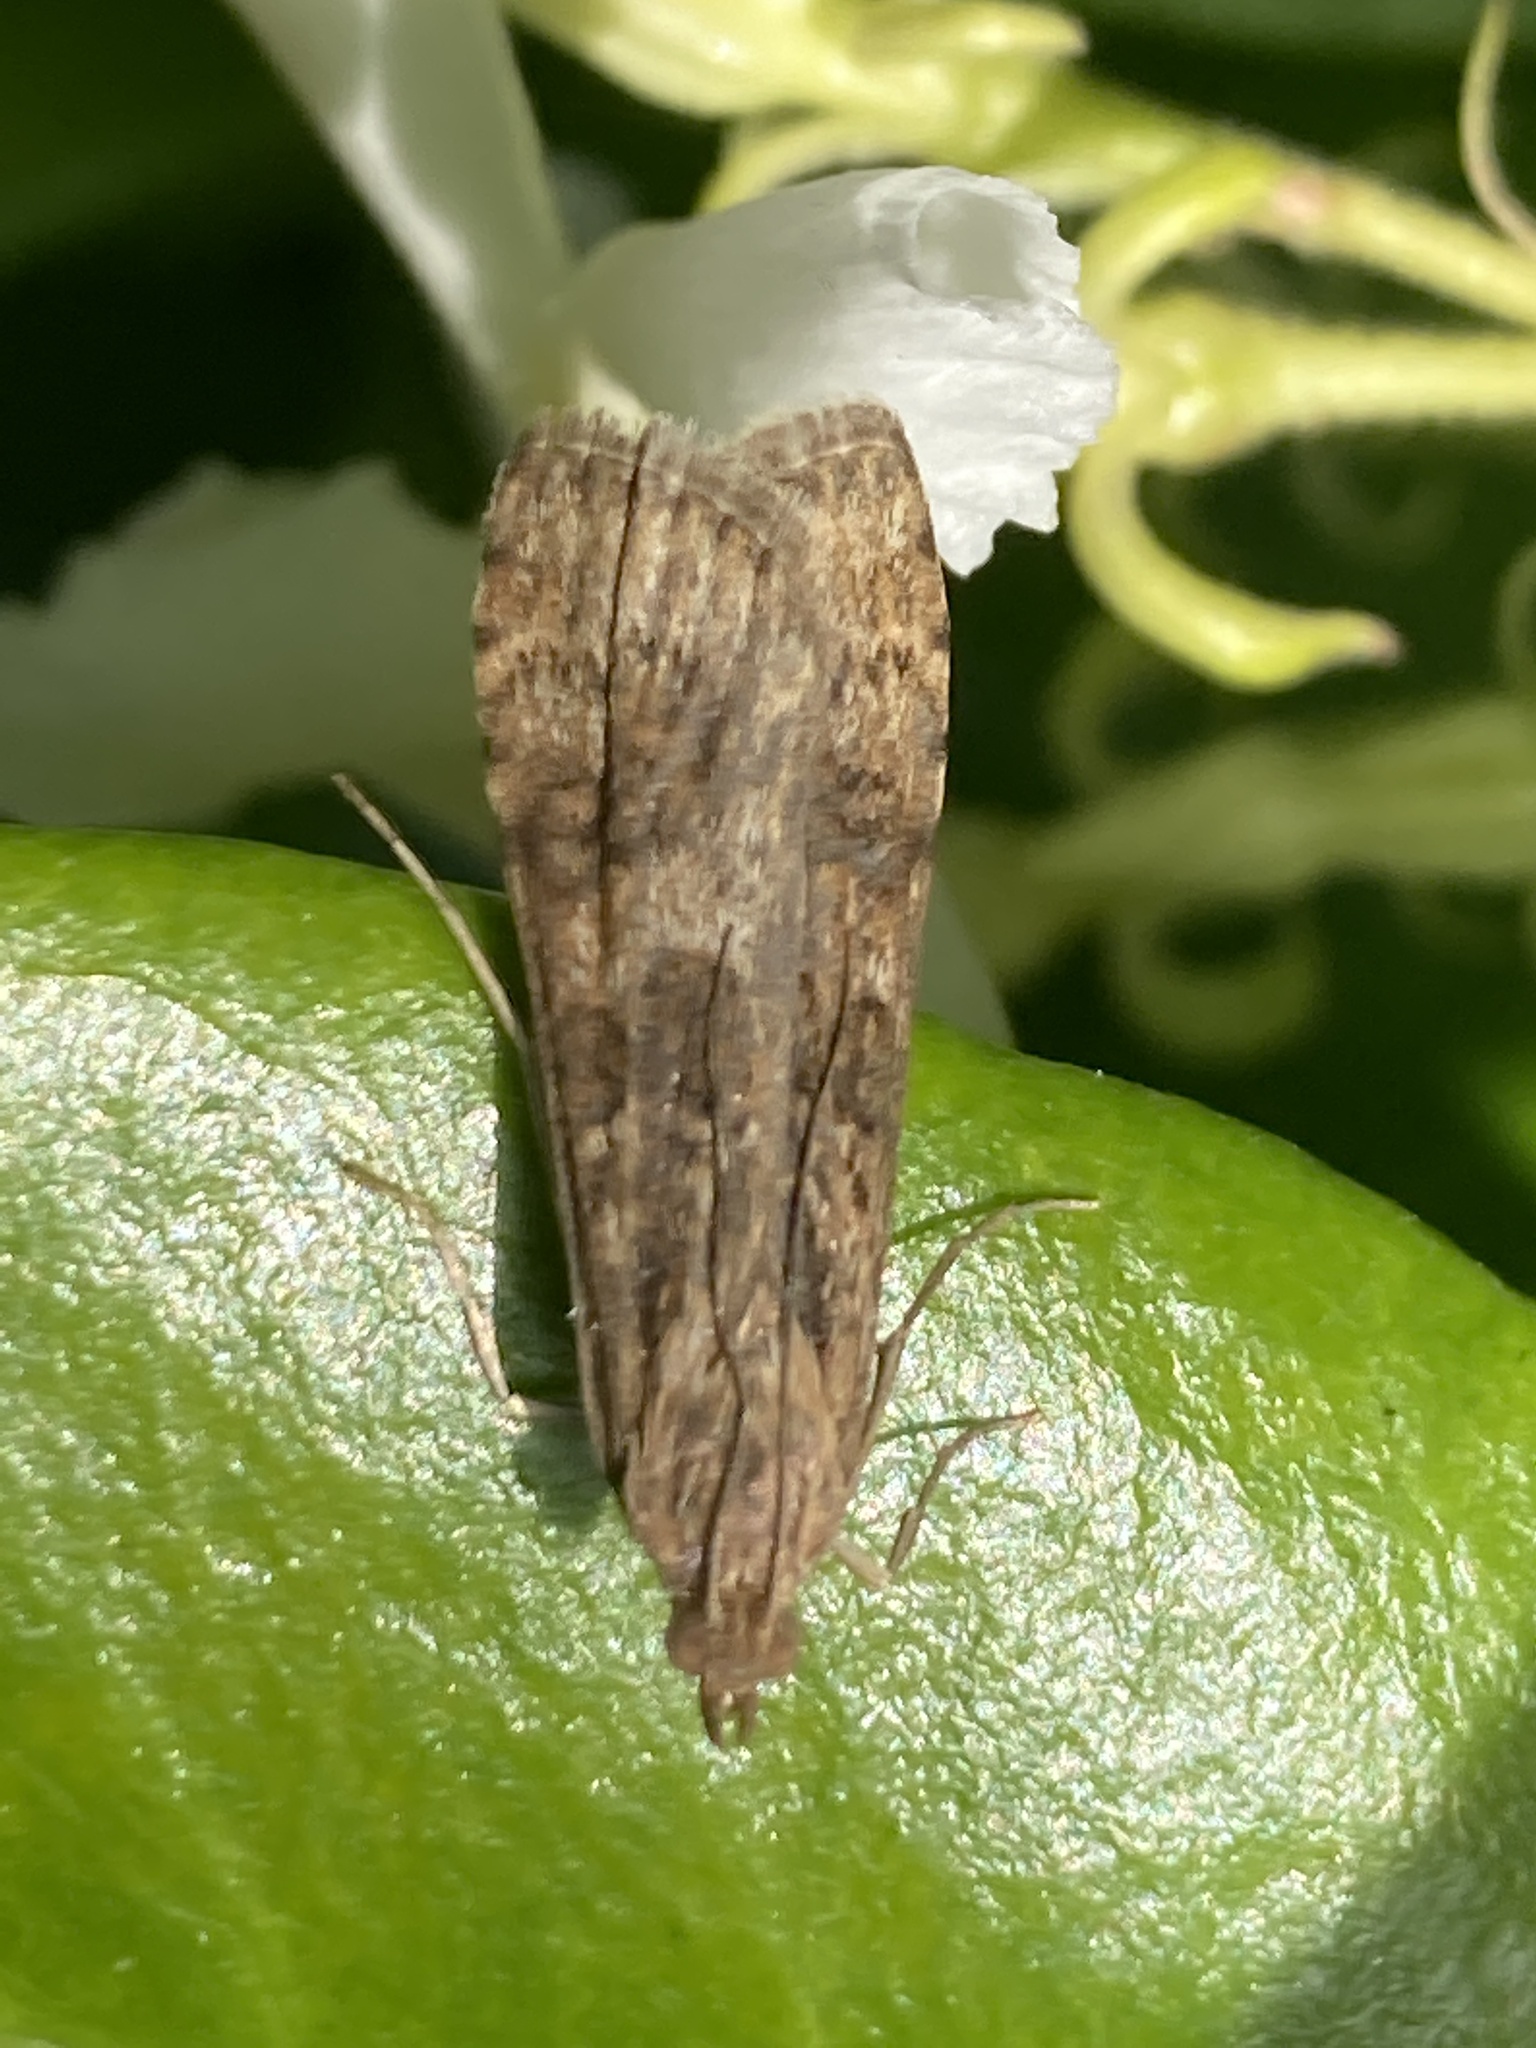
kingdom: Animalia
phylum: Arthropoda
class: Insecta
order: Lepidoptera
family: Crambidae
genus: Nomophila
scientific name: Nomophila noctuella
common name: Rush veneer
